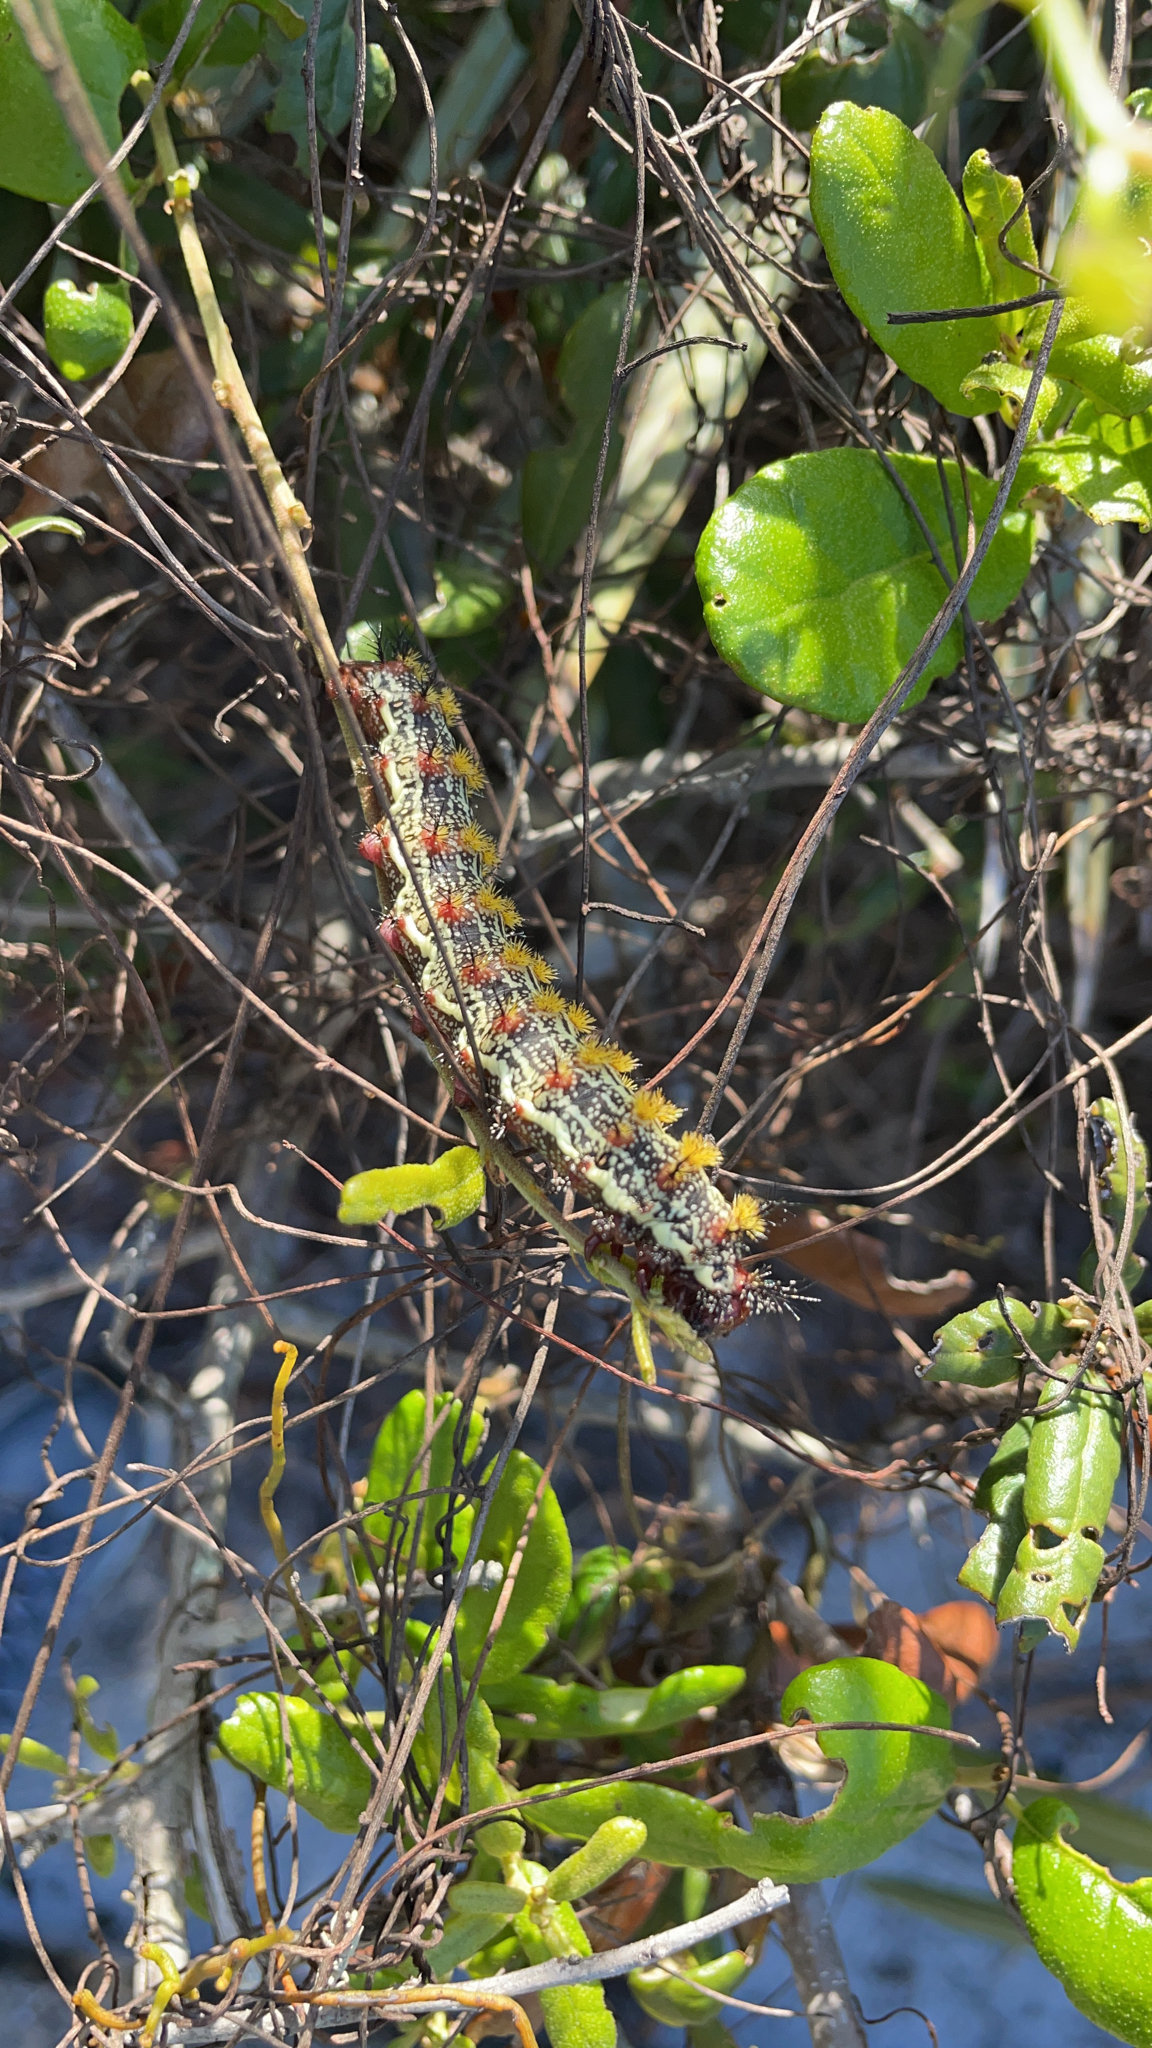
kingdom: Animalia
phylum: Arthropoda
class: Insecta
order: Lepidoptera
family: Saturniidae
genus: Hemileuca
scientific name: Hemileuca maia
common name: Eastern buckmoth
